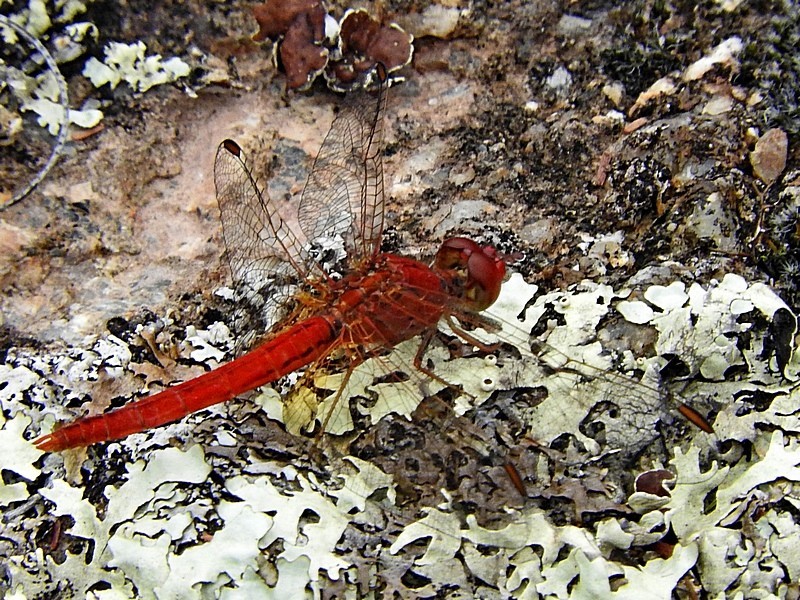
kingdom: Animalia
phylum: Arthropoda
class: Insecta
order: Odonata
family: Libellulidae
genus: Diplacodes
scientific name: Diplacodes haematodes
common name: Scarlet percher
